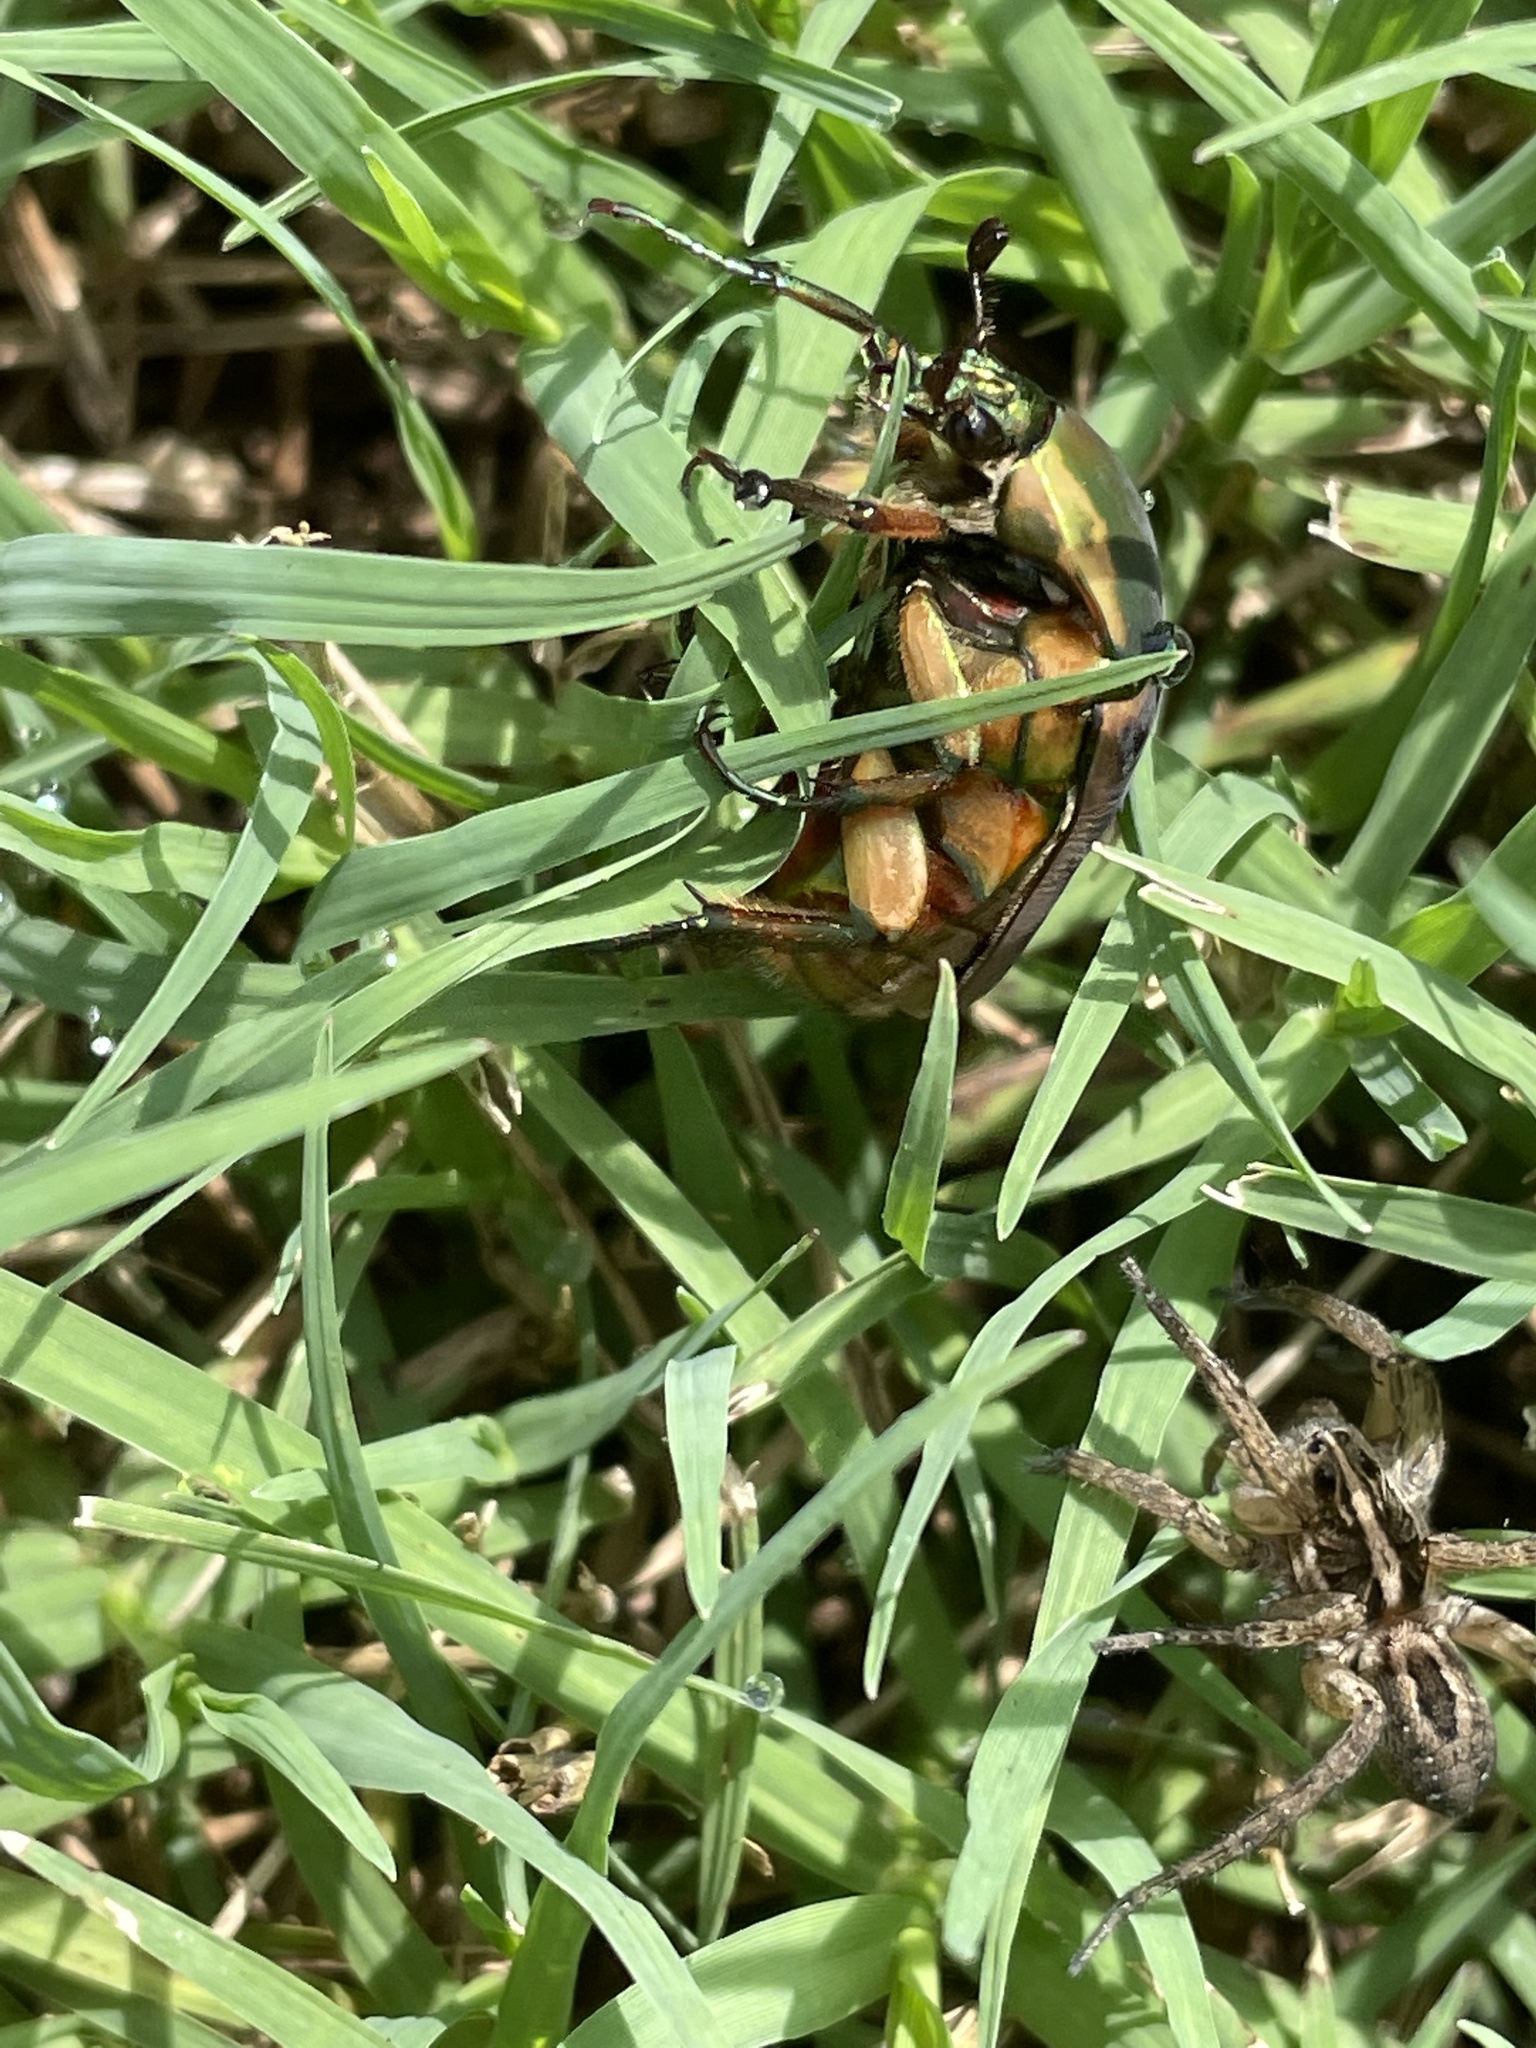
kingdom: Animalia
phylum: Arthropoda
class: Insecta
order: Coleoptera
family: Scarabaeidae
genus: Cotinis
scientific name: Cotinis nitida
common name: Common green june beetle
